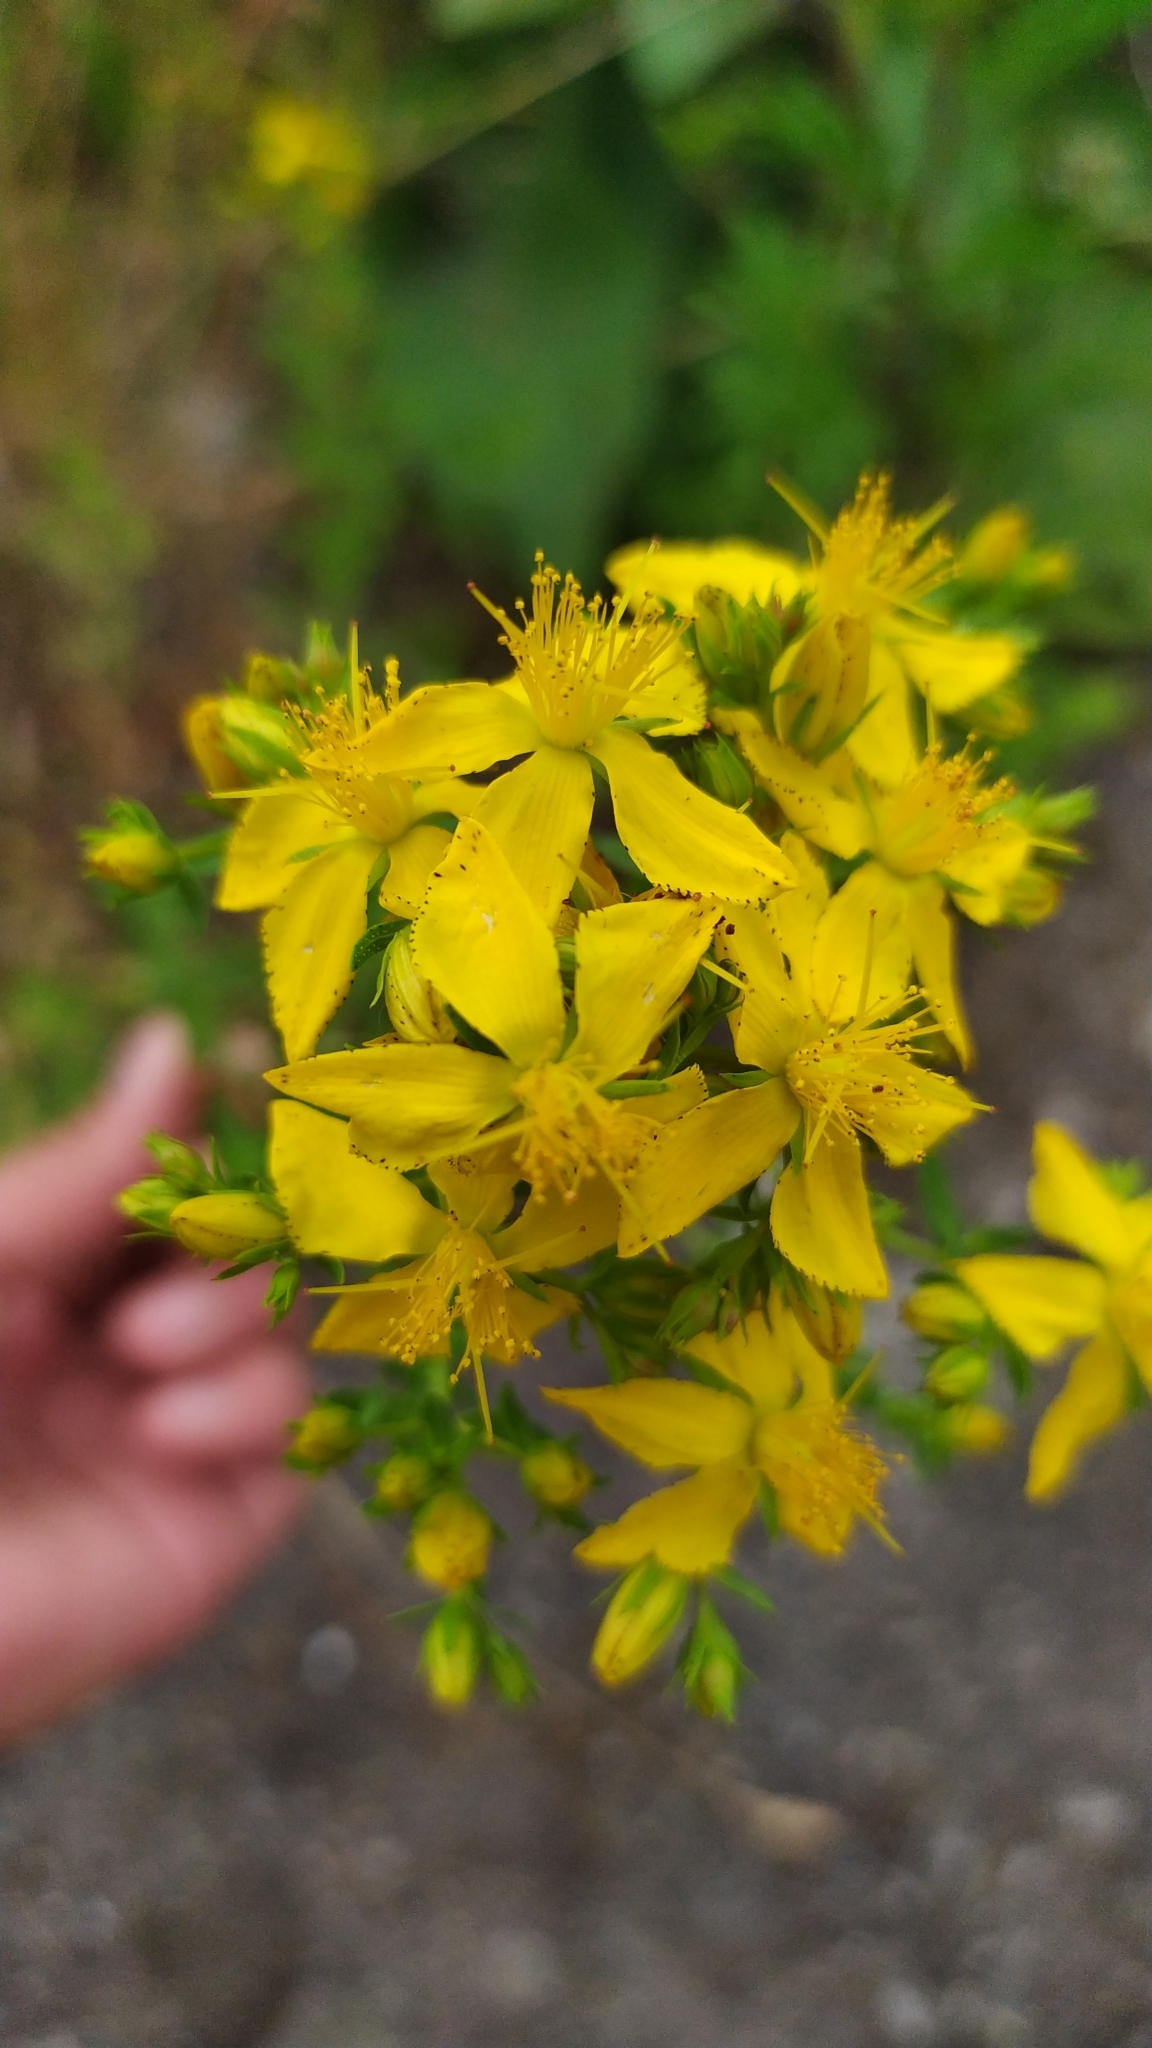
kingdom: Plantae
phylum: Tracheophyta
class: Magnoliopsida
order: Malpighiales
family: Hypericaceae
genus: Hypericum
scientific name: Hypericum perforatum
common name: Common st. johnswort
